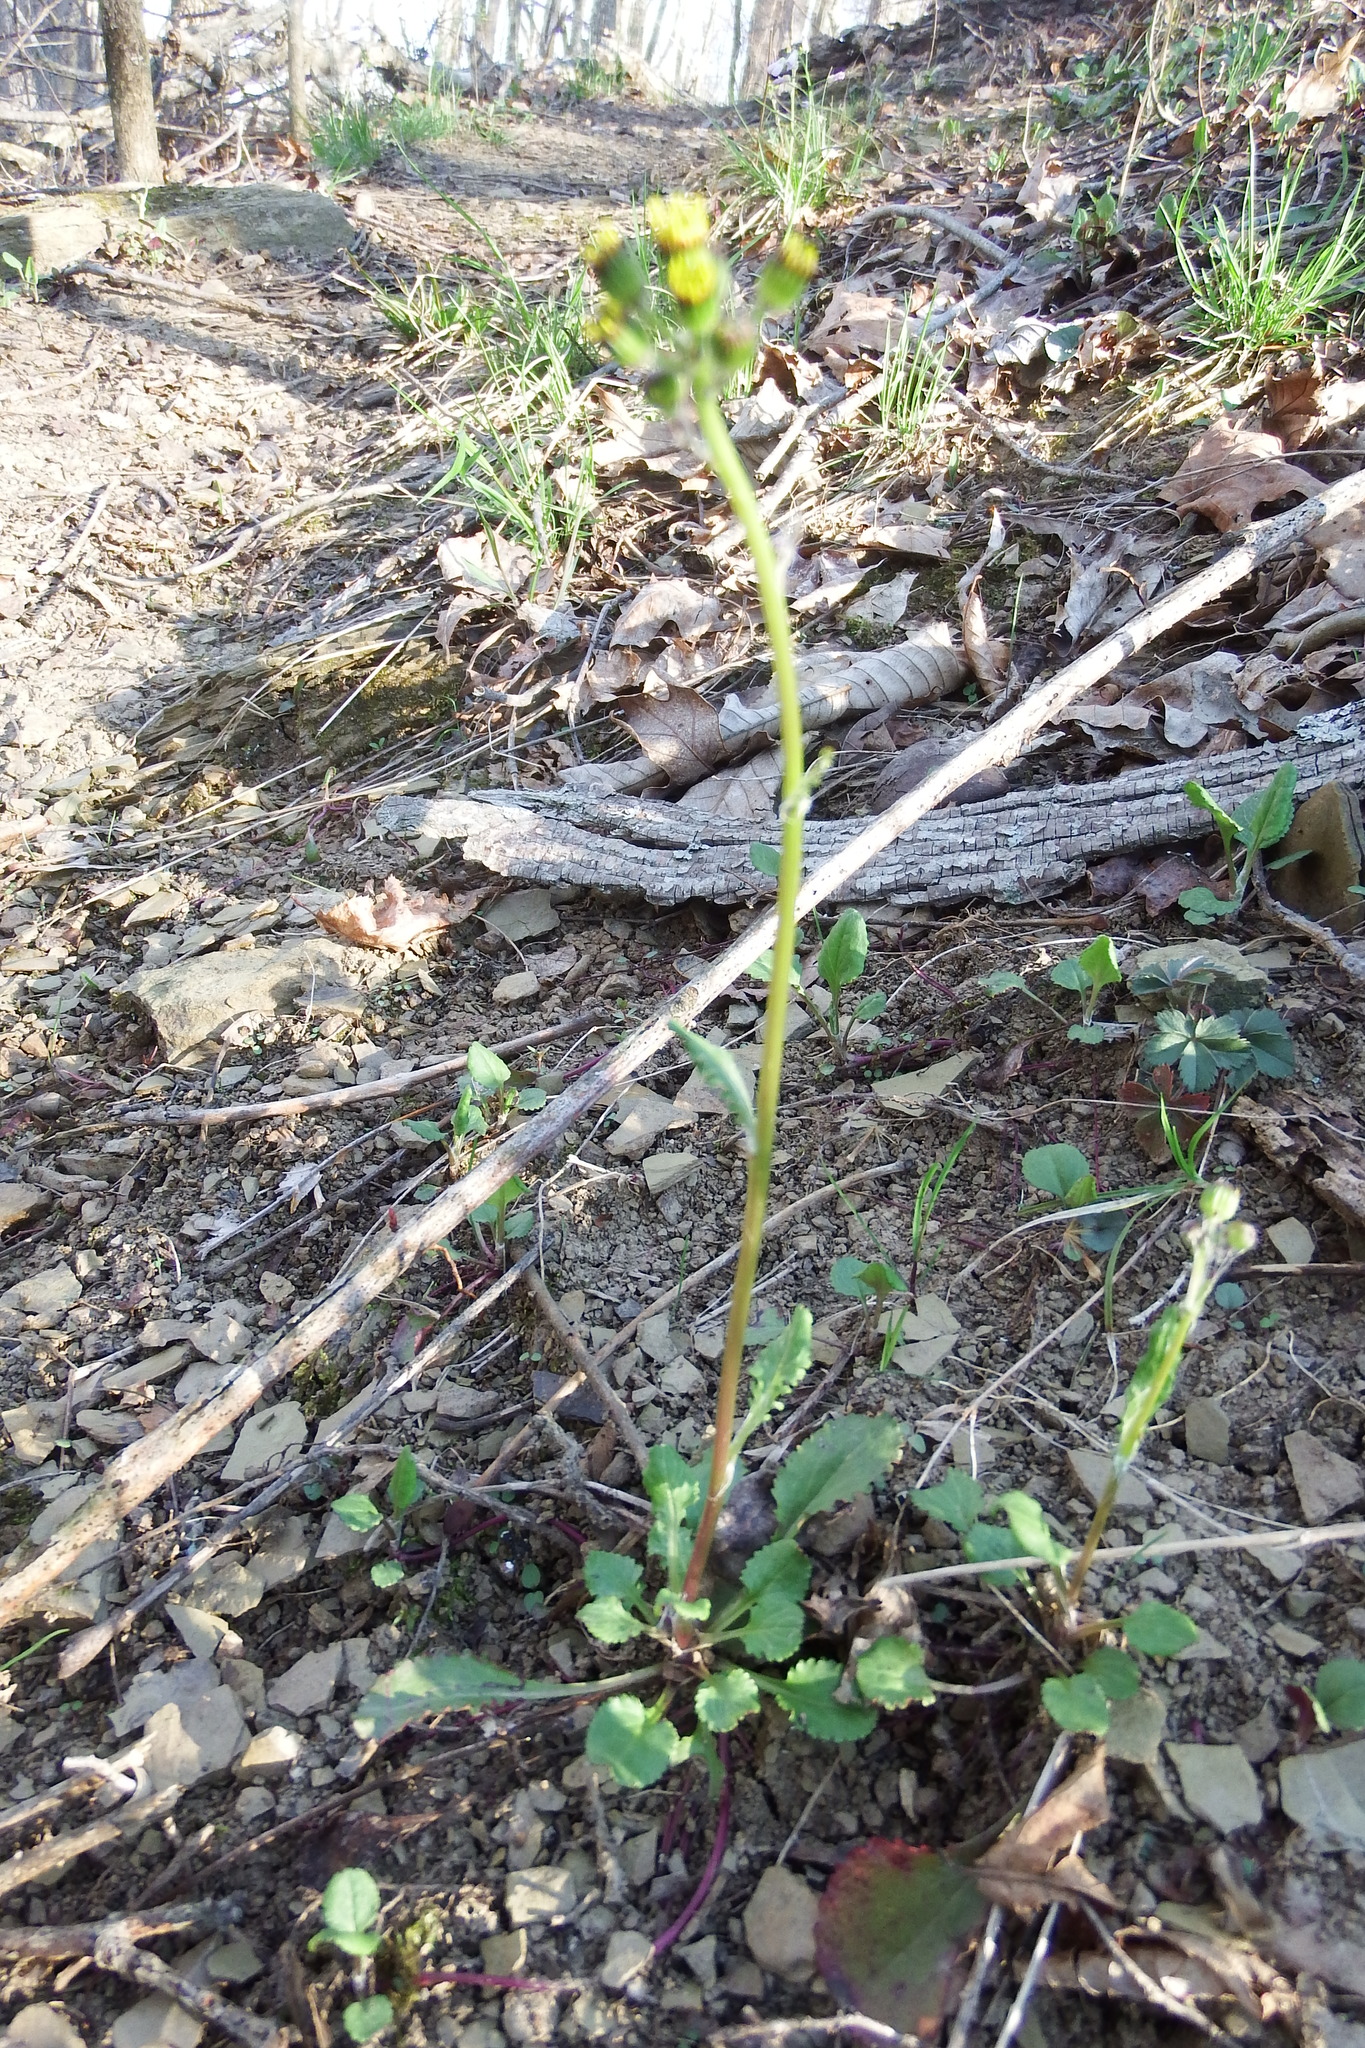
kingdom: Plantae
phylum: Tracheophyta
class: Magnoliopsida
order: Asterales
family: Asteraceae
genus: Packera
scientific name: Packera obovata
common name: Round-leaf ragwort
